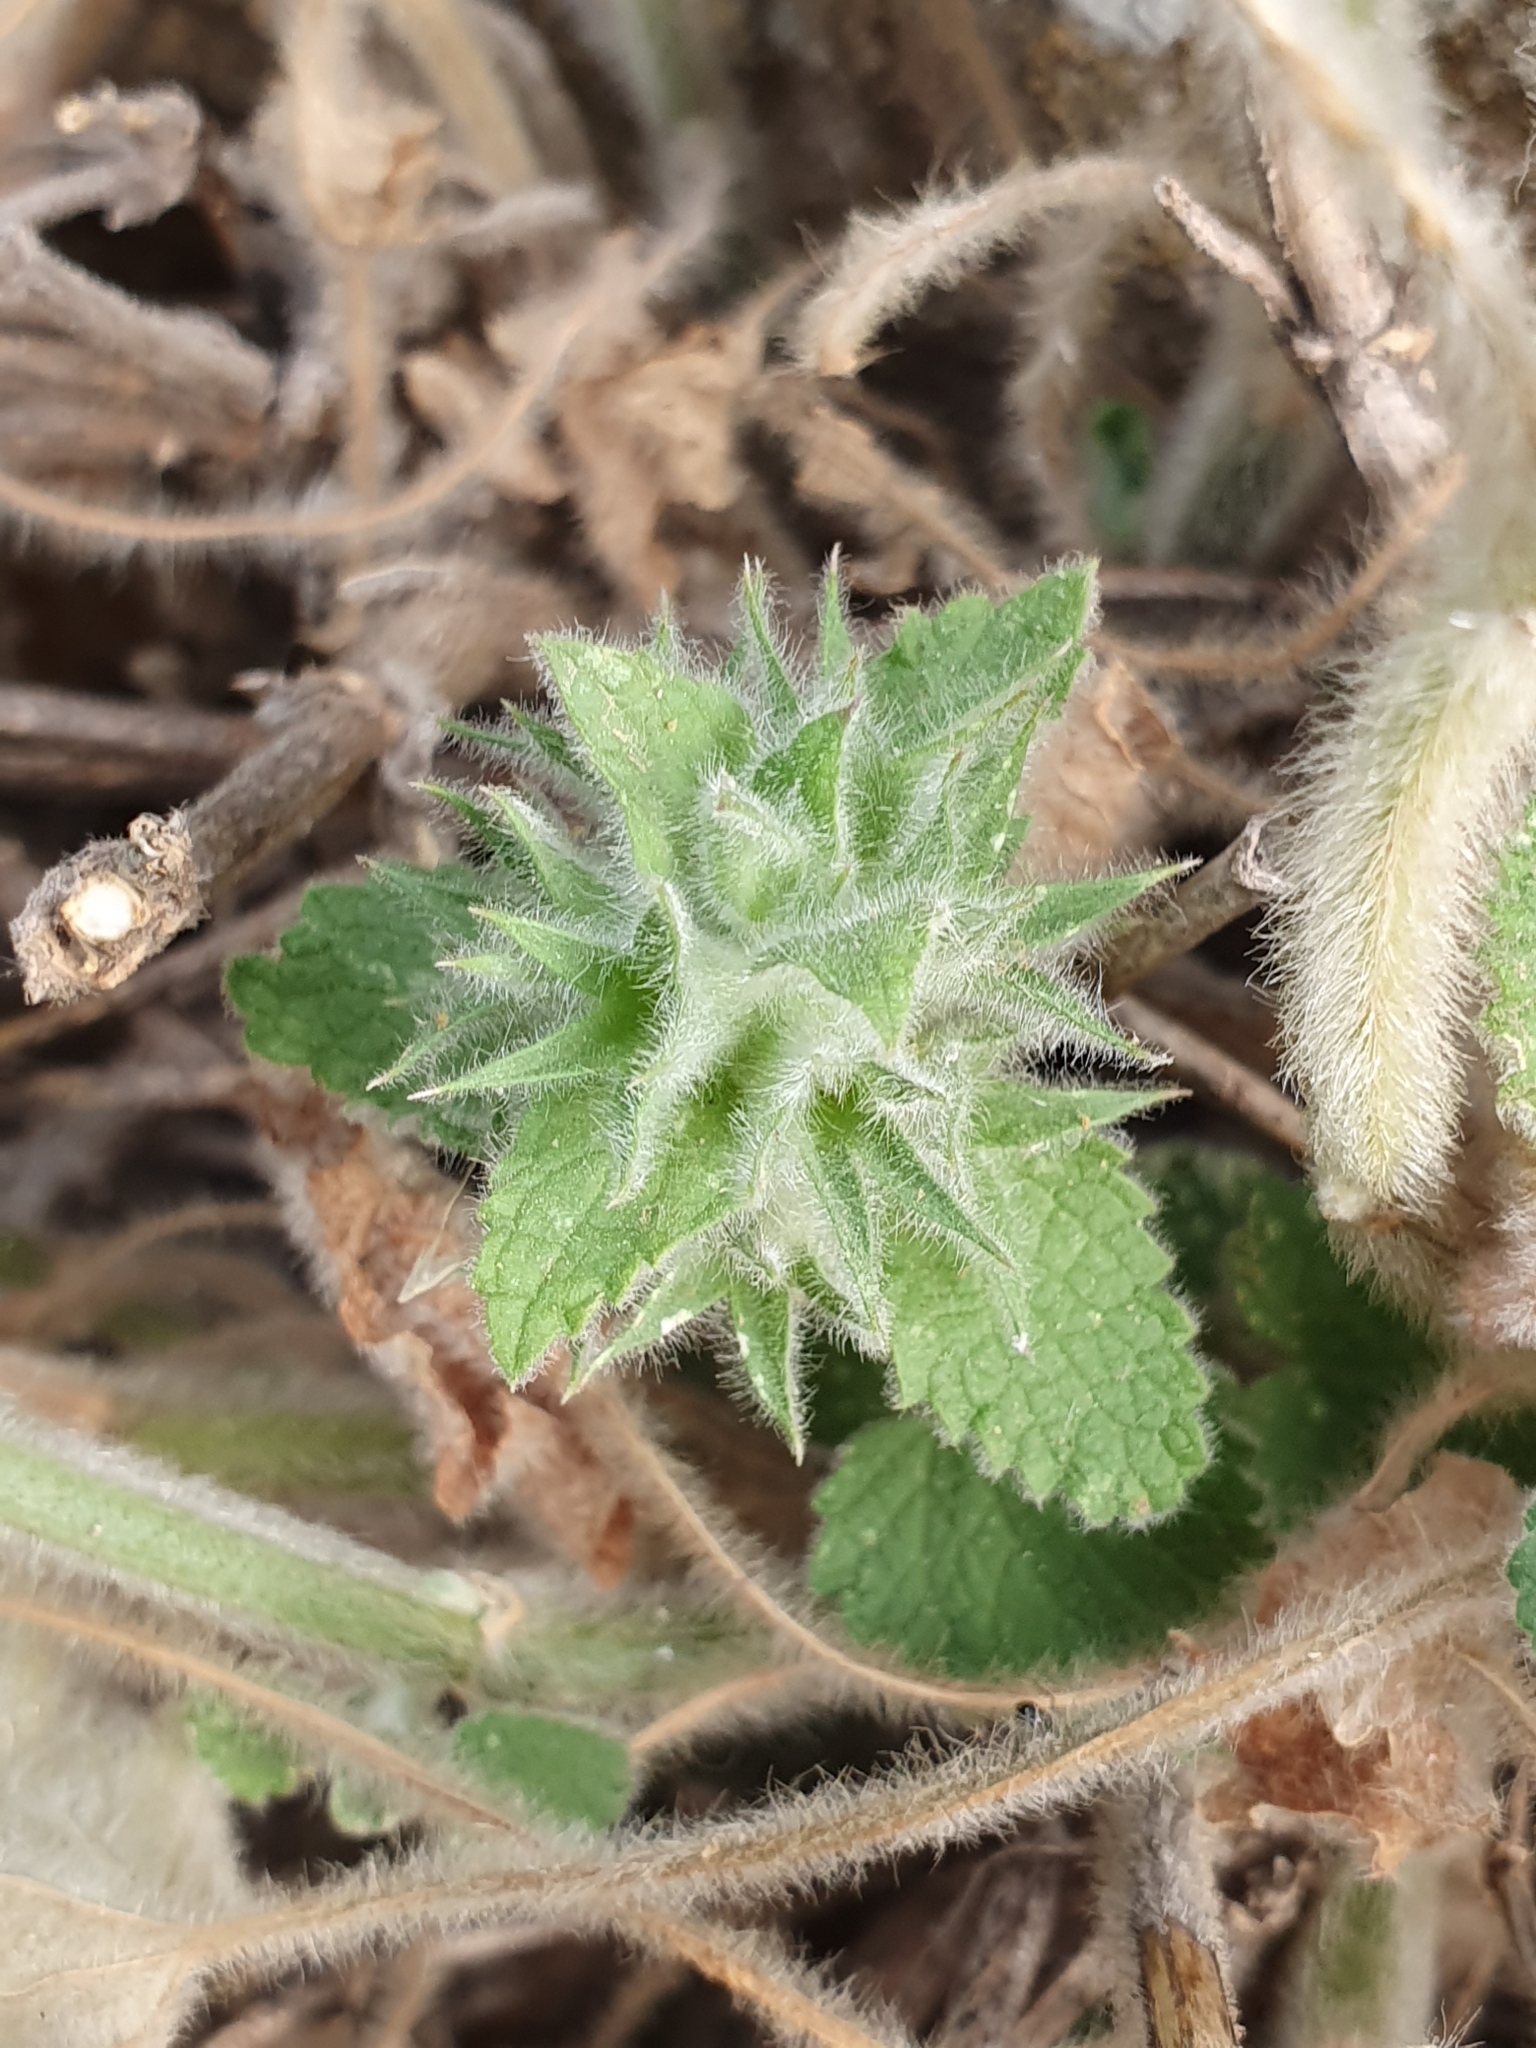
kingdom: Plantae
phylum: Tracheophyta
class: Magnoliopsida
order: Lamiales
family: Lamiaceae
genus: Stachys
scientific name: Stachys circinata
